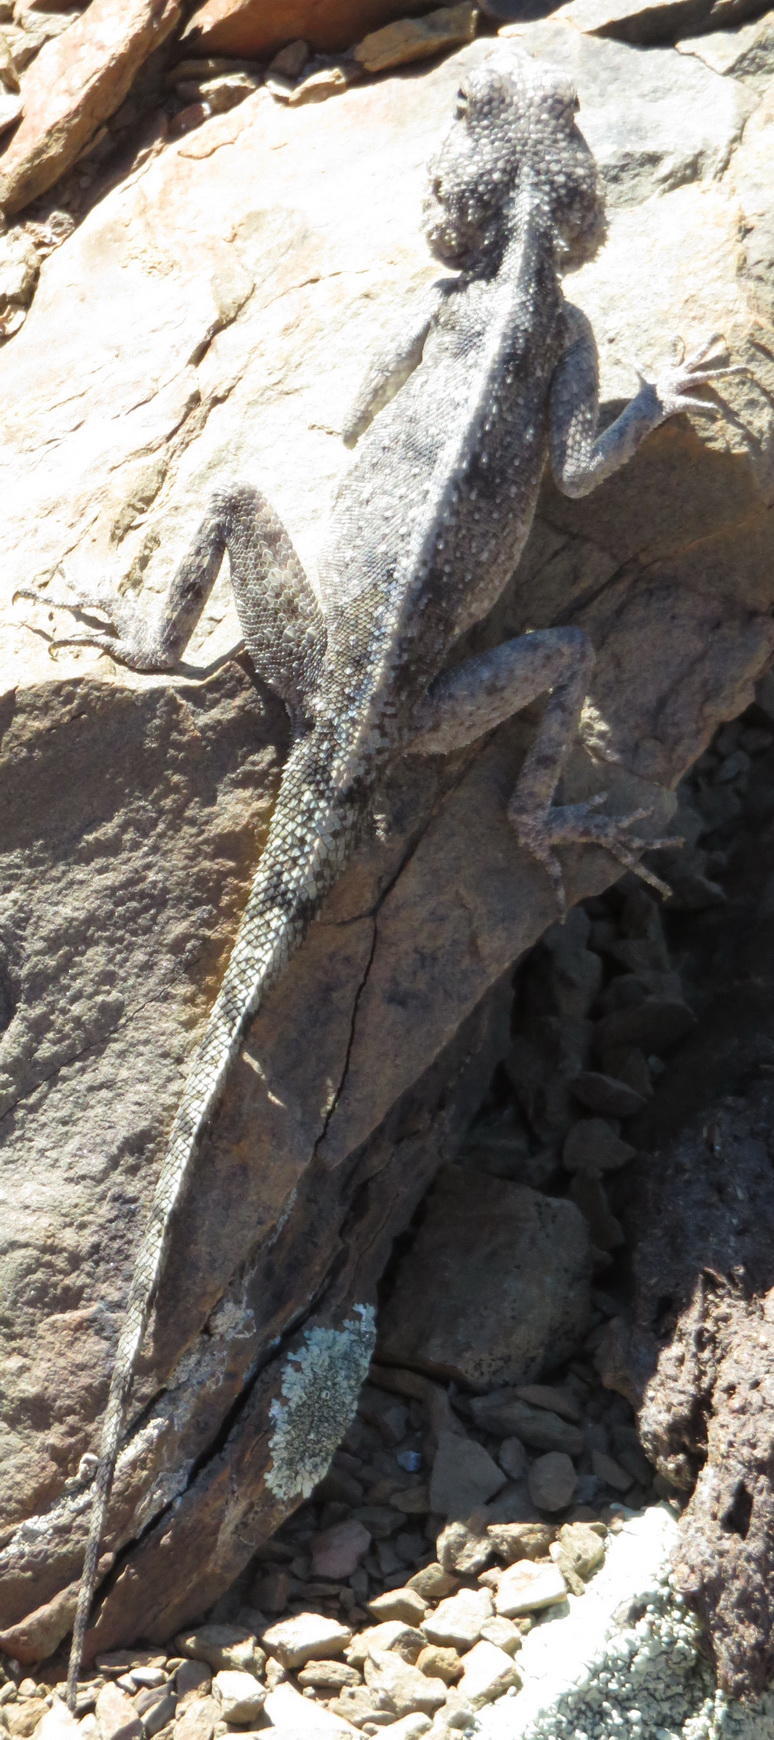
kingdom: Animalia
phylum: Chordata
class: Squamata
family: Agamidae
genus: Agama
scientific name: Agama atra
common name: Southern african rock agama
